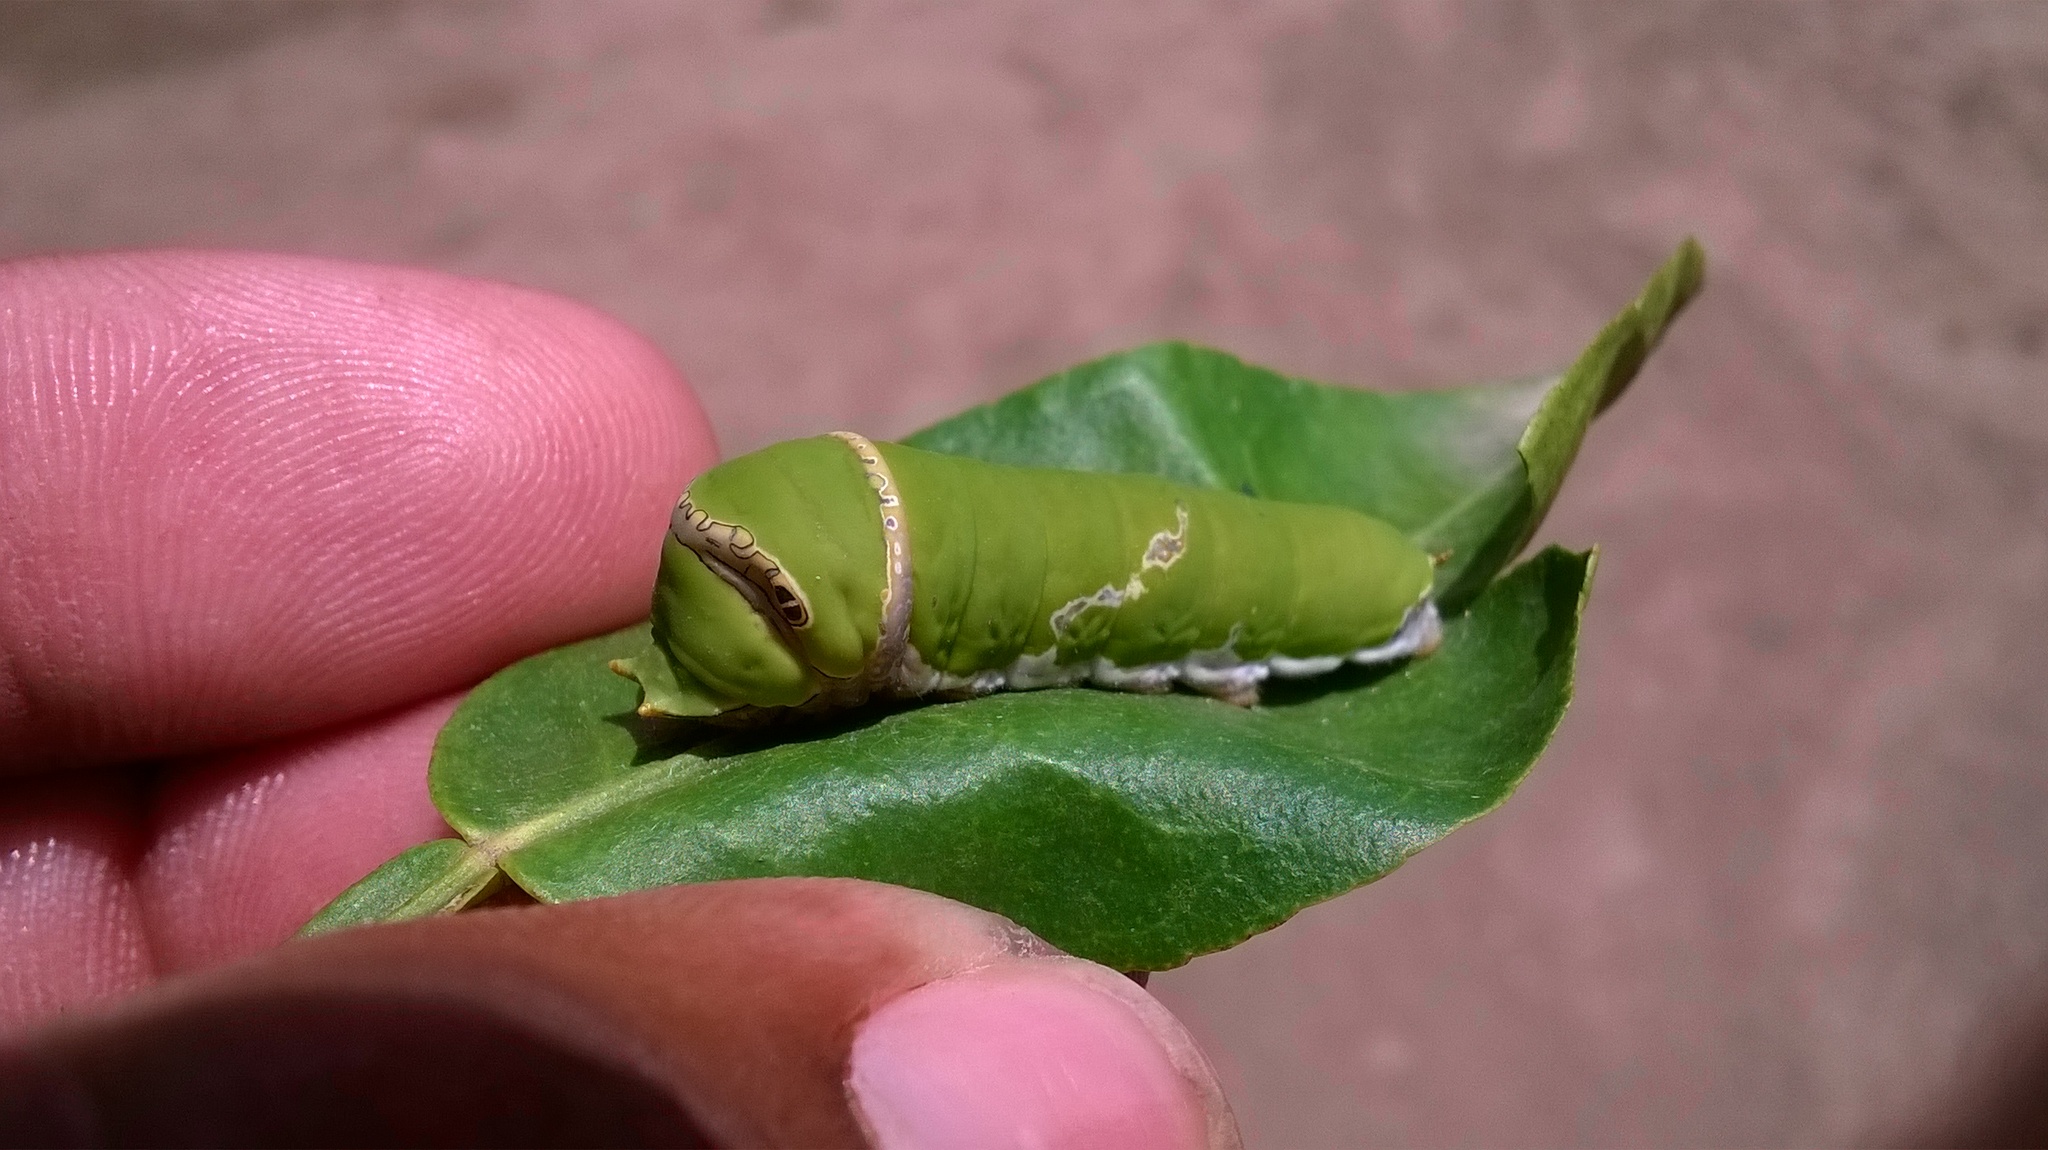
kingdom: Animalia
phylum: Arthropoda
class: Insecta
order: Lepidoptera
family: Papilionidae
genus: Papilio
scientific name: Papilio demoleus
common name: Lime butterfly
